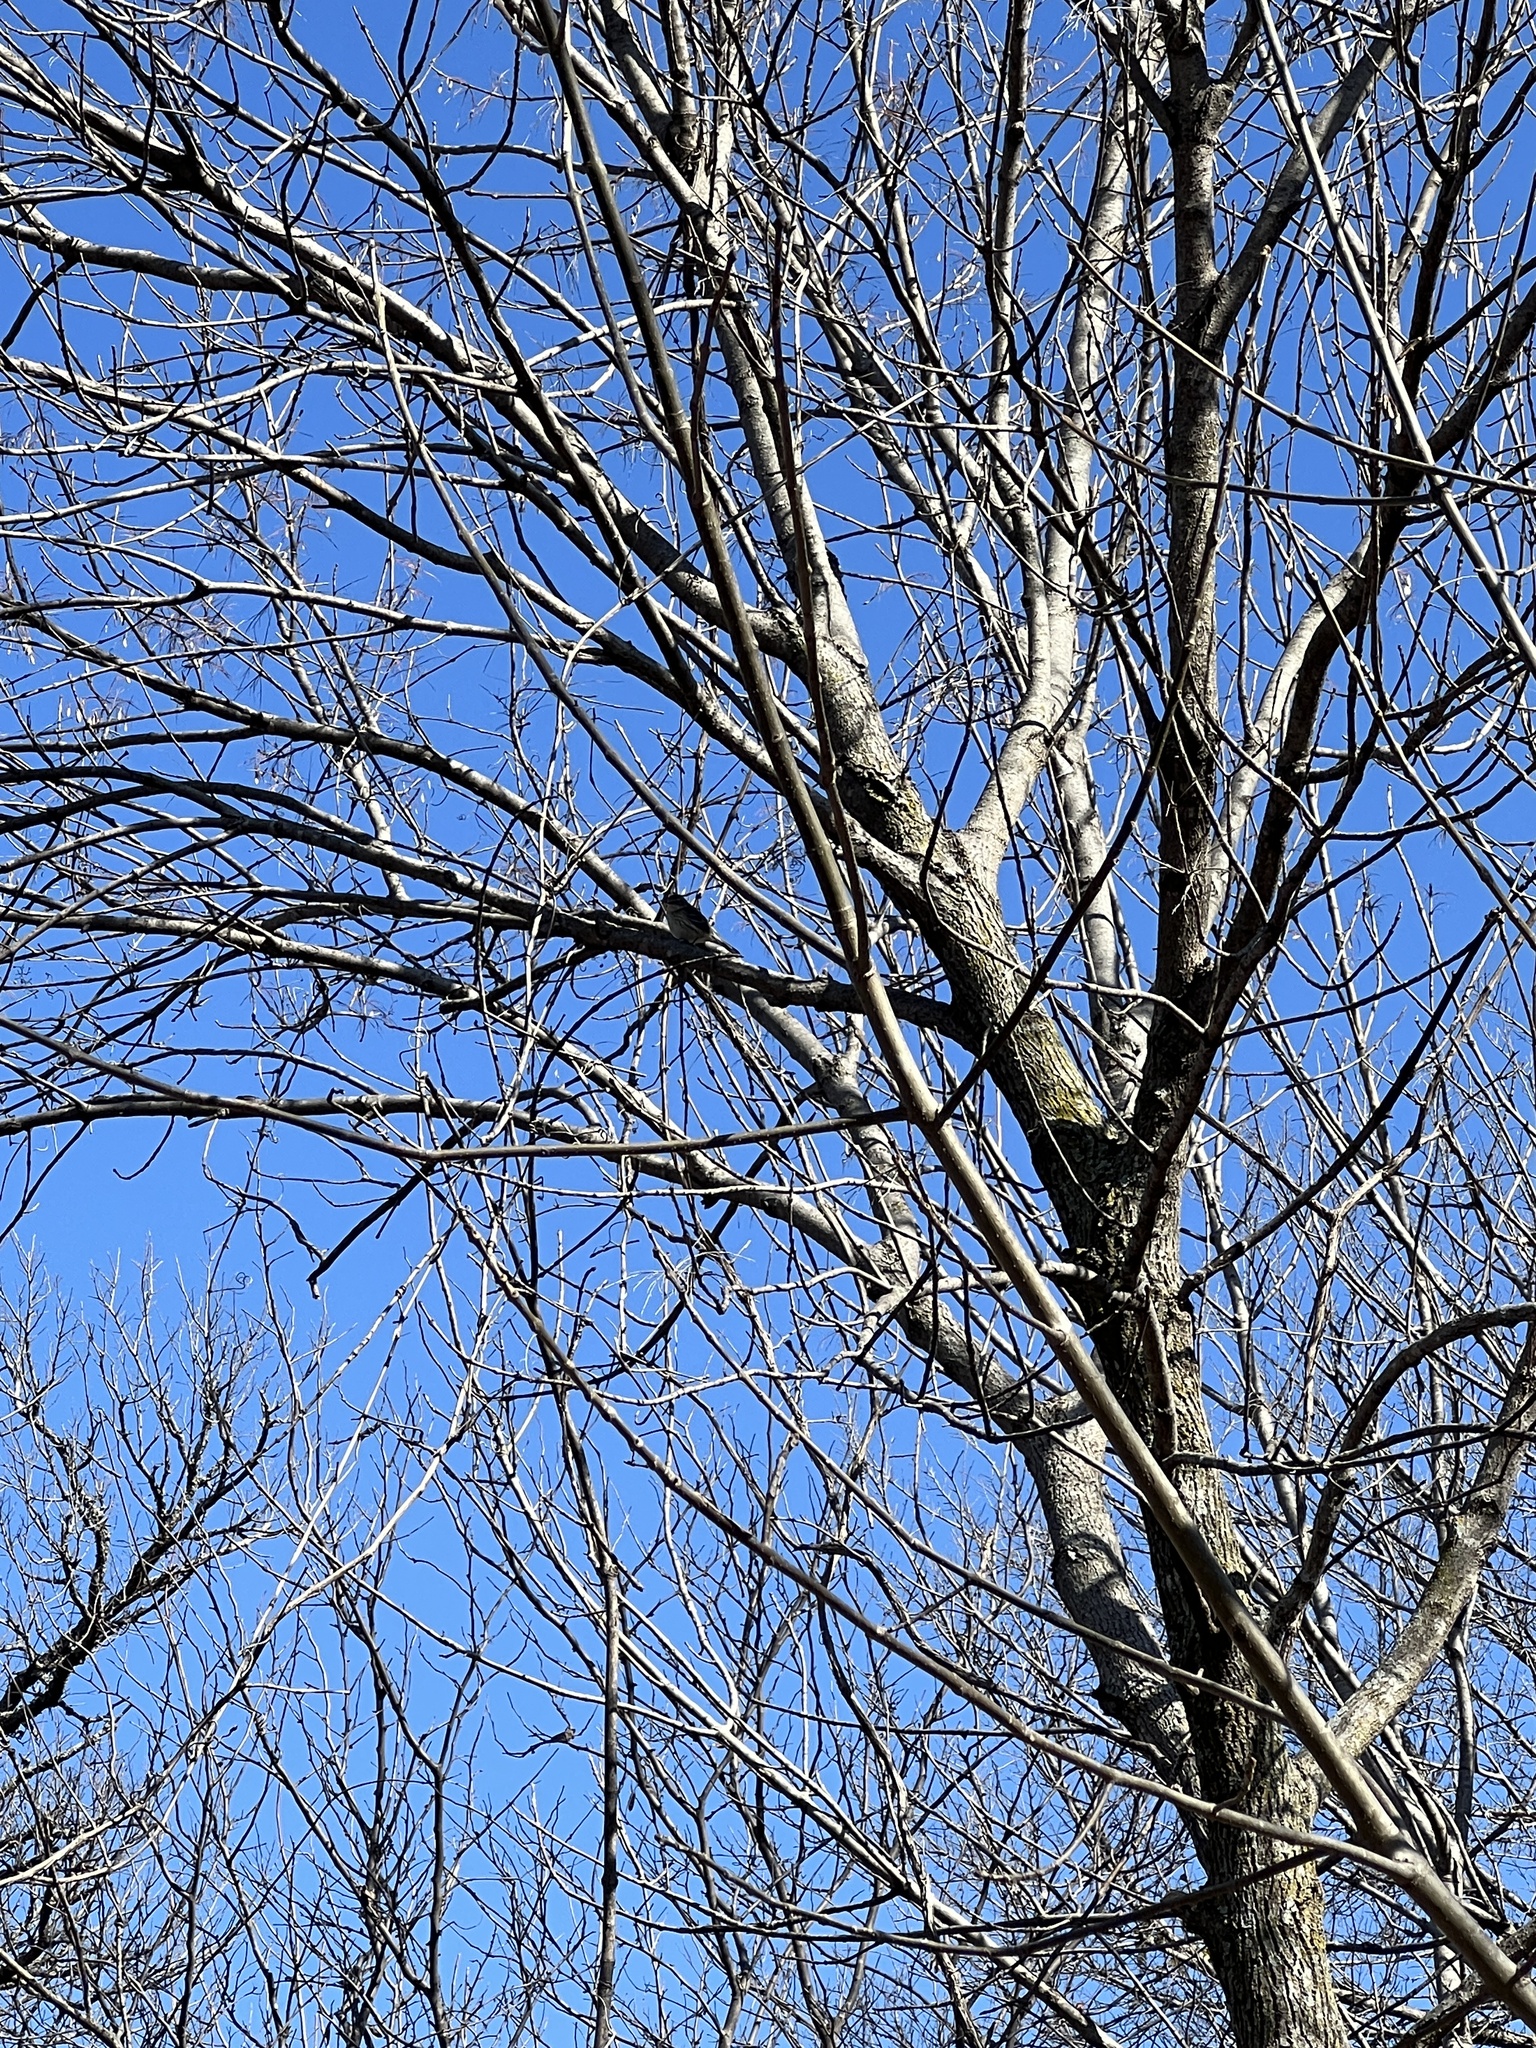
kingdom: Animalia
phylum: Chordata
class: Aves
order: Passeriformes
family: Parulidae
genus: Setophaga
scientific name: Setophaga coronata
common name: Myrtle warbler
